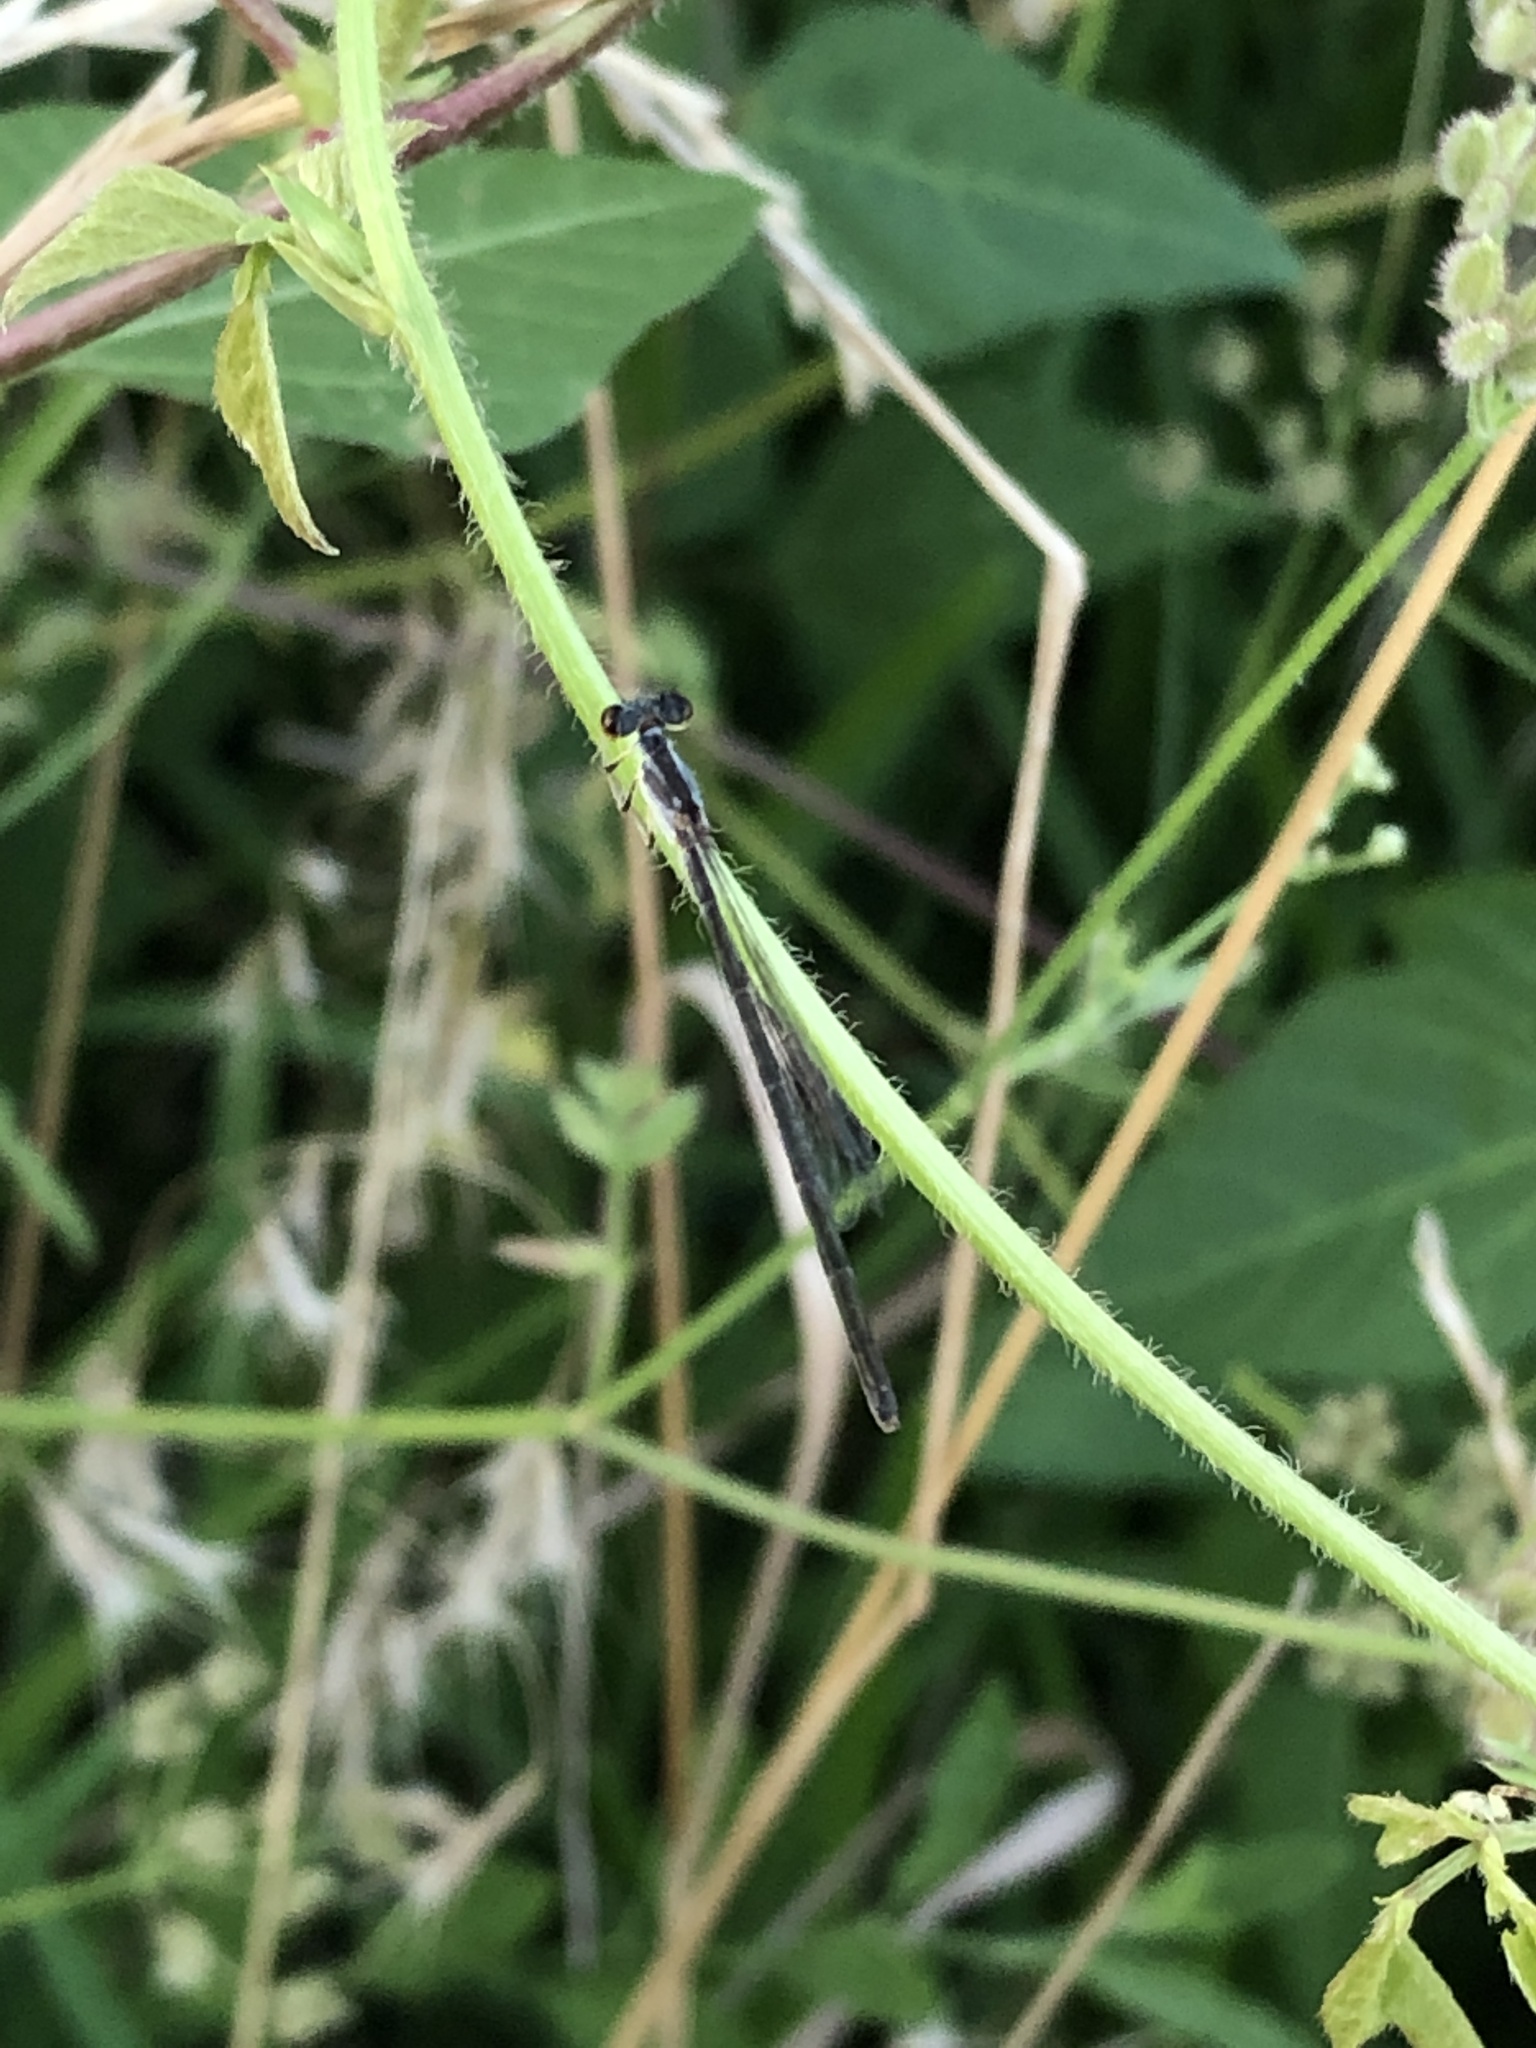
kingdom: Animalia
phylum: Arthropoda
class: Insecta
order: Odonata
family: Coenagrionidae
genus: Ischnura
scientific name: Ischnura posita
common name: Fragile forktail
